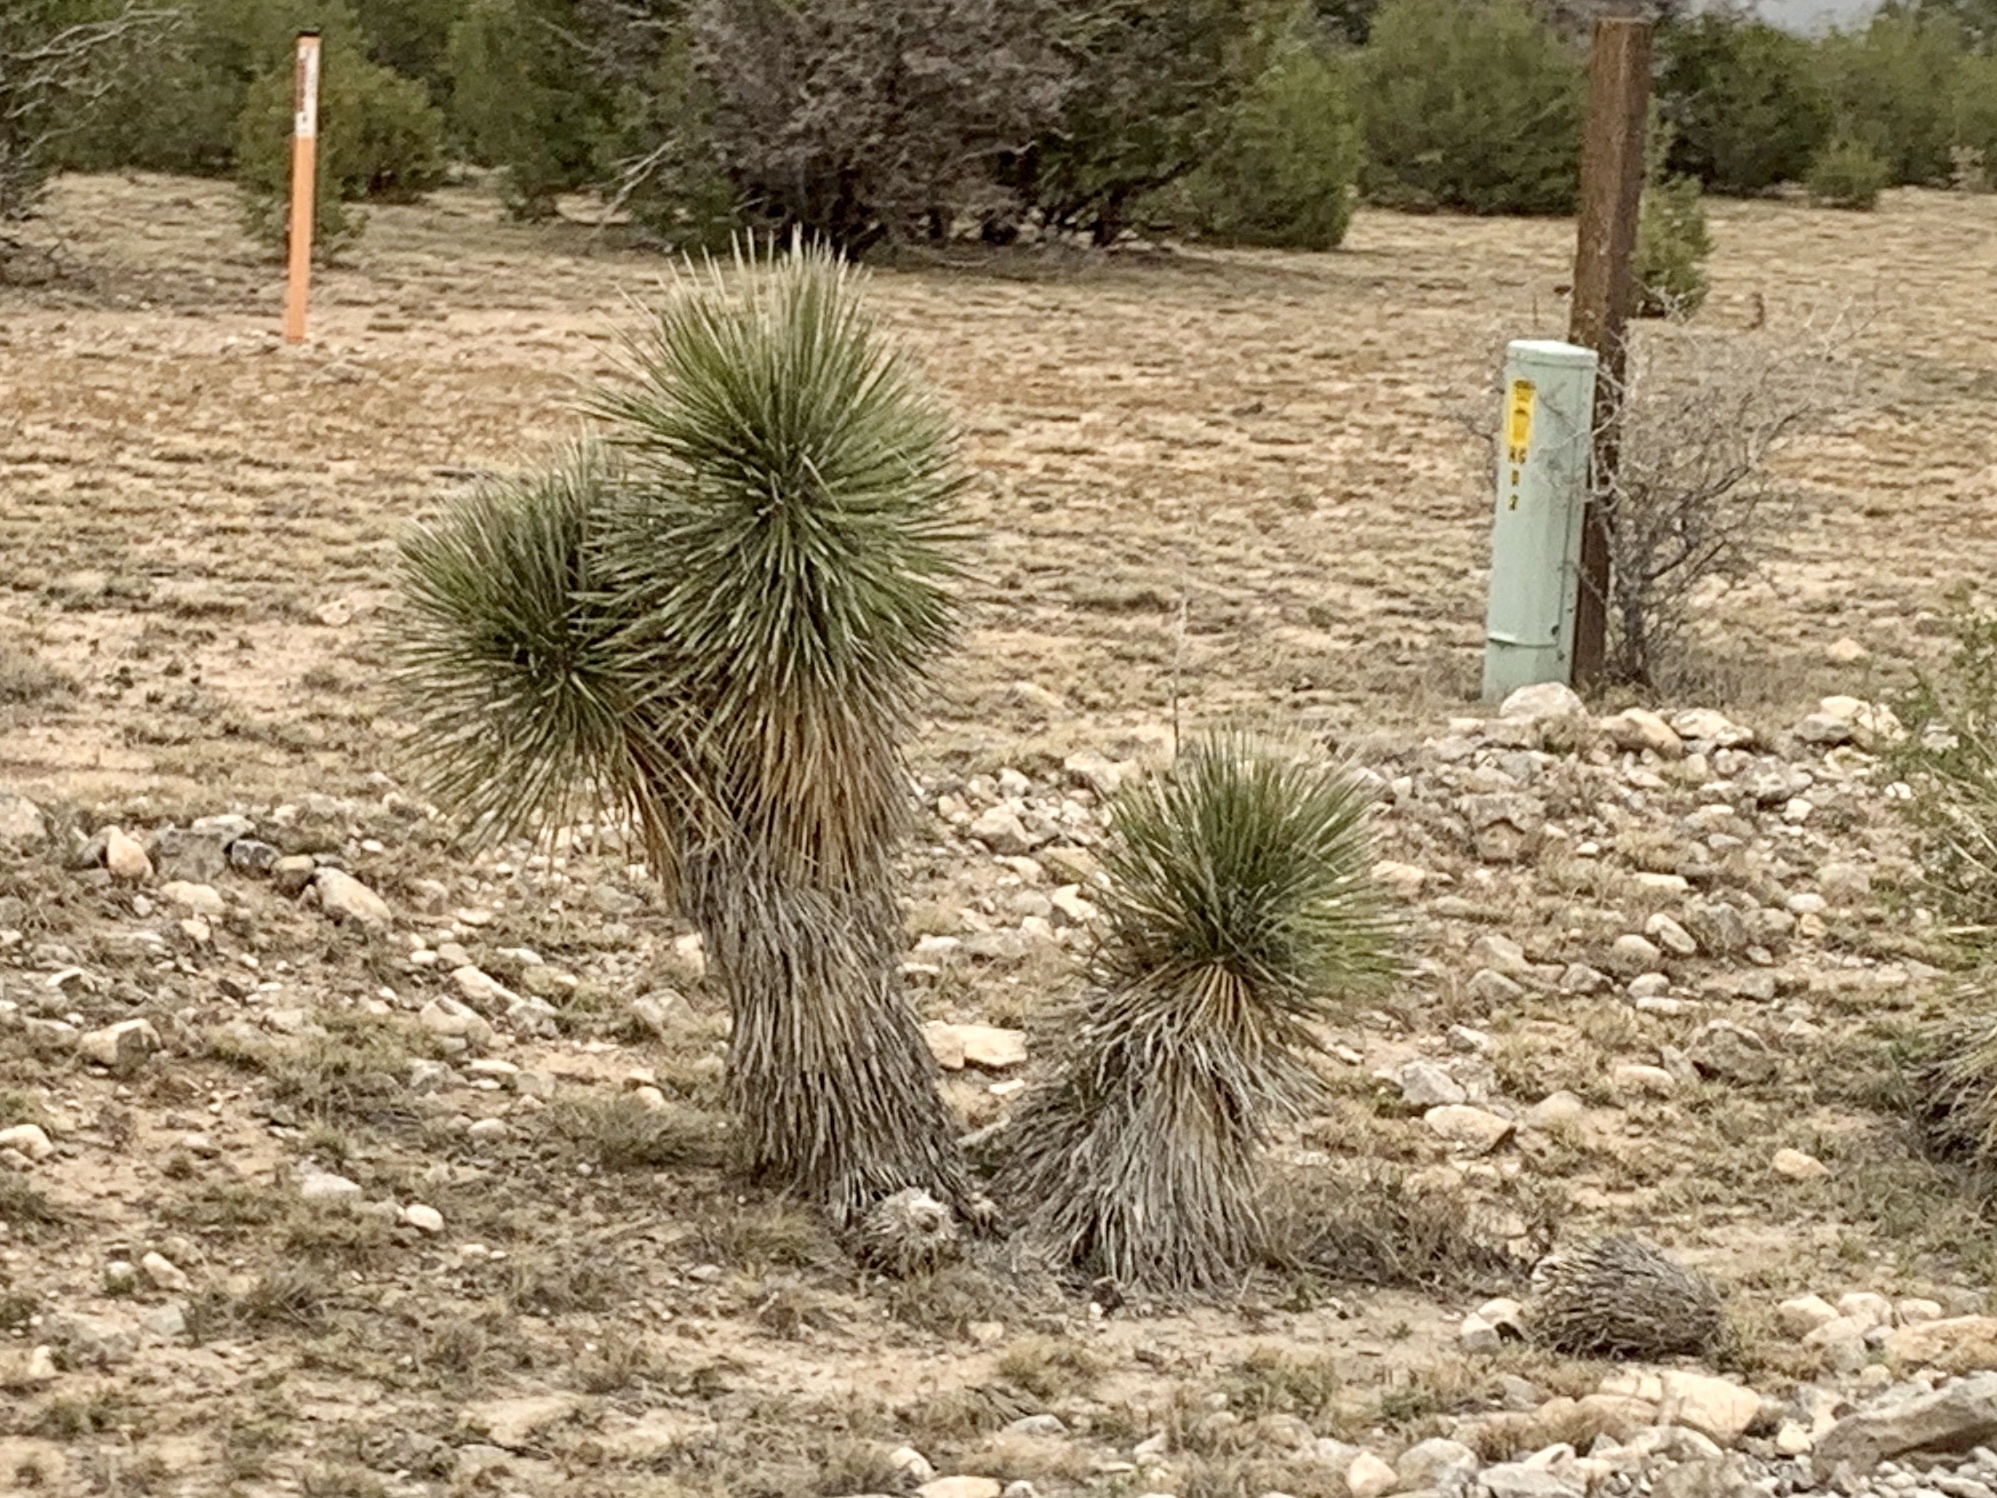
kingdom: Plantae
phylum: Tracheophyta
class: Liliopsida
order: Asparagales
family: Asparagaceae
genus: Yucca
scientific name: Yucca elata
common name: Palmella
